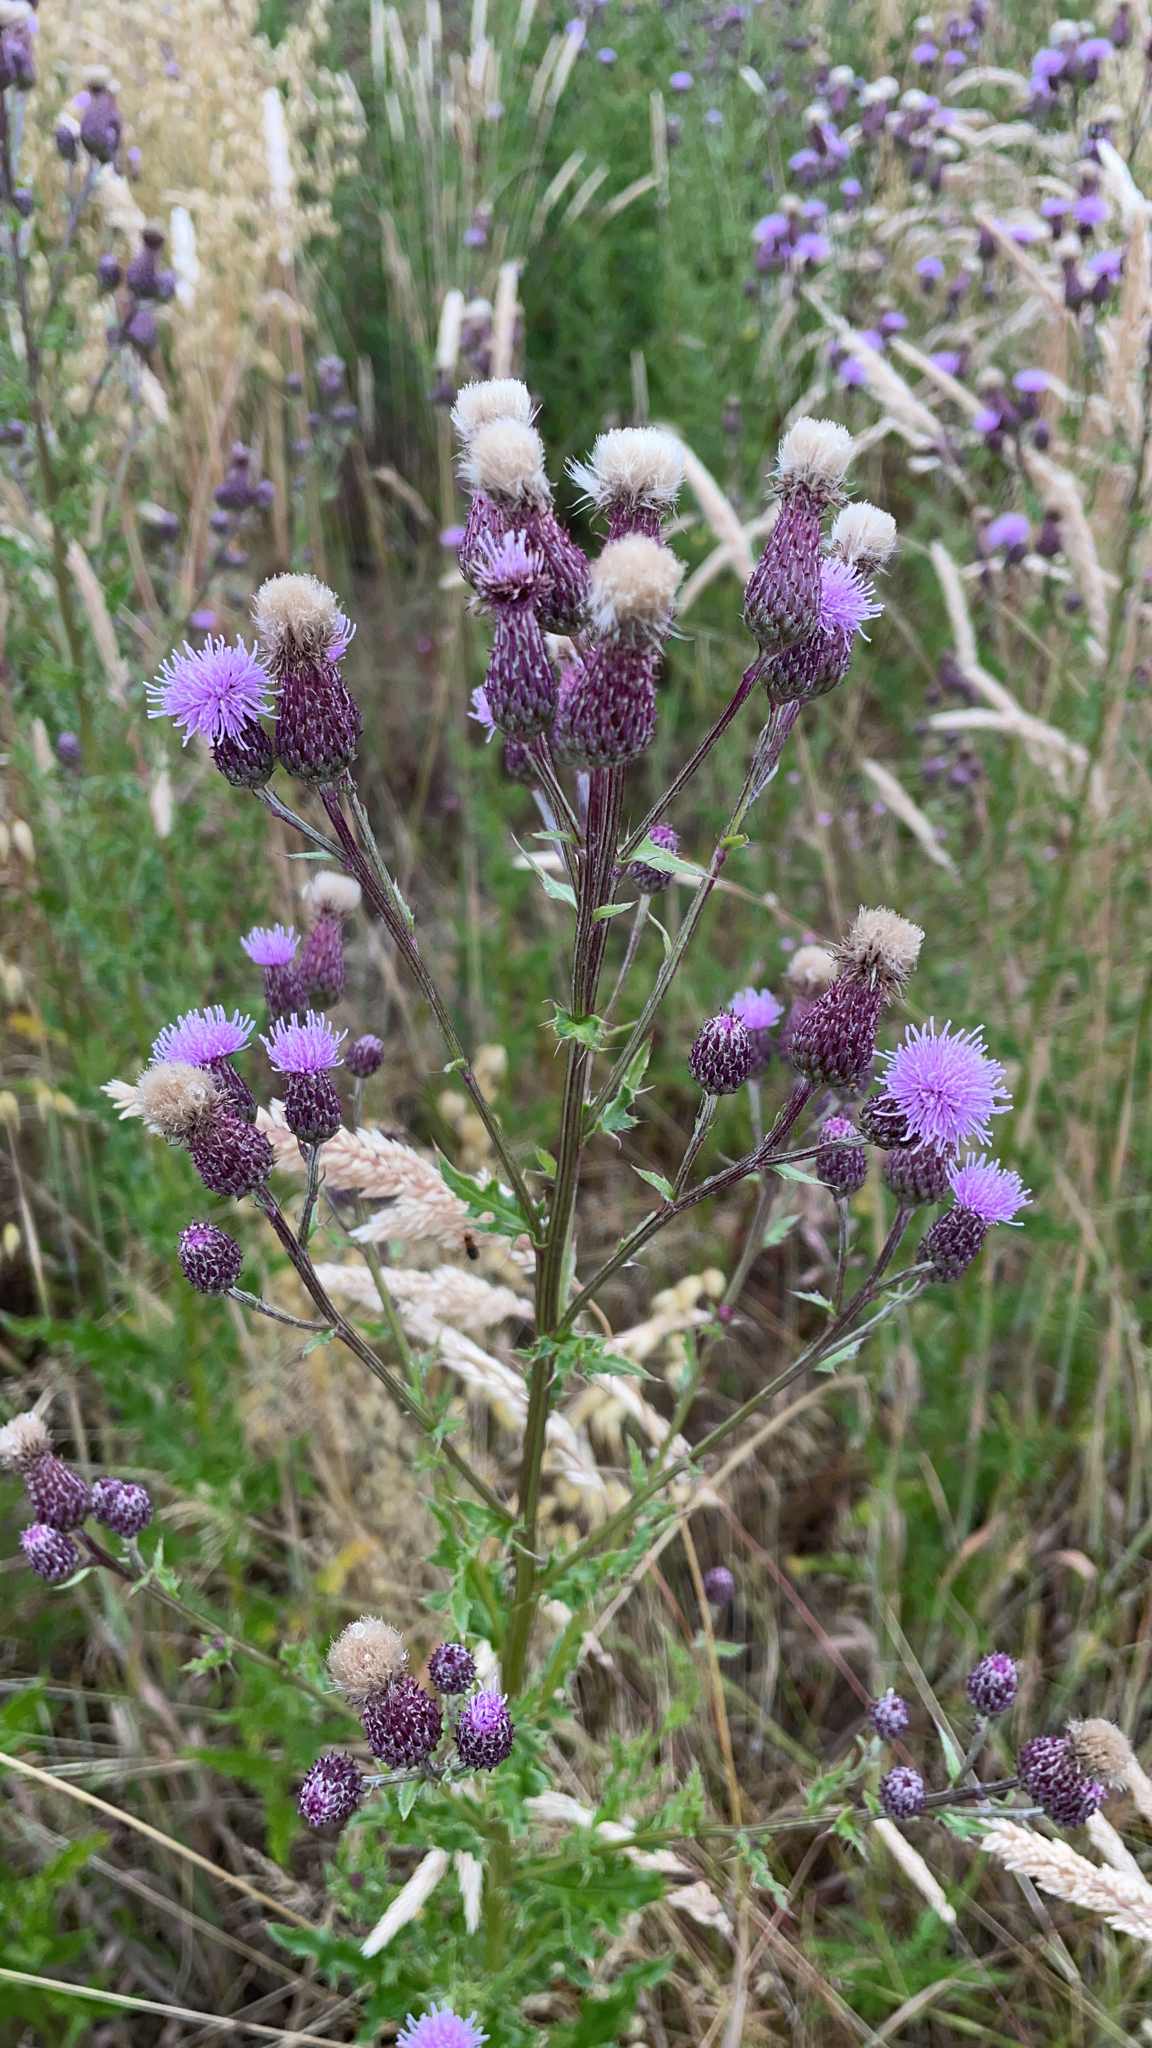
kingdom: Plantae
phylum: Tracheophyta
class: Magnoliopsida
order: Asterales
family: Asteraceae
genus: Cirsium
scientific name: Cirsium arvense
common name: Creeping thistle
